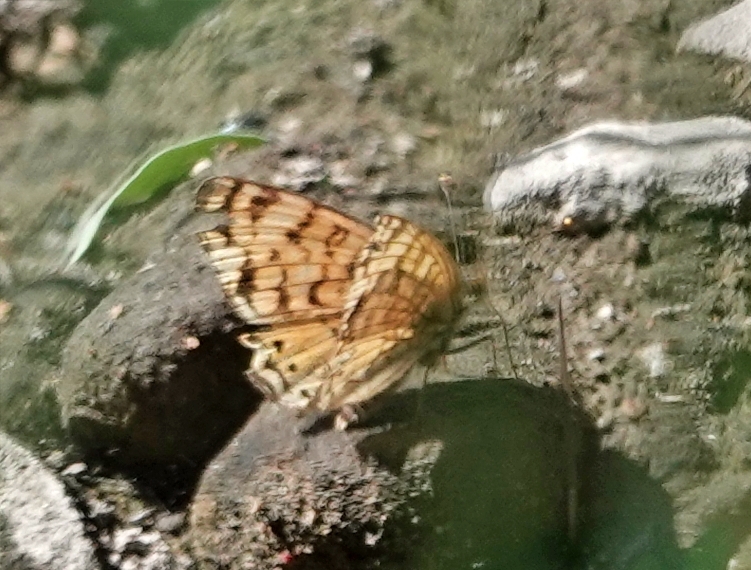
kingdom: Animalia
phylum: Arthropoda
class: Insecta
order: Lepidoptera
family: Nymphalidae
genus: Eresia
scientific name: Eresia aveyrona
